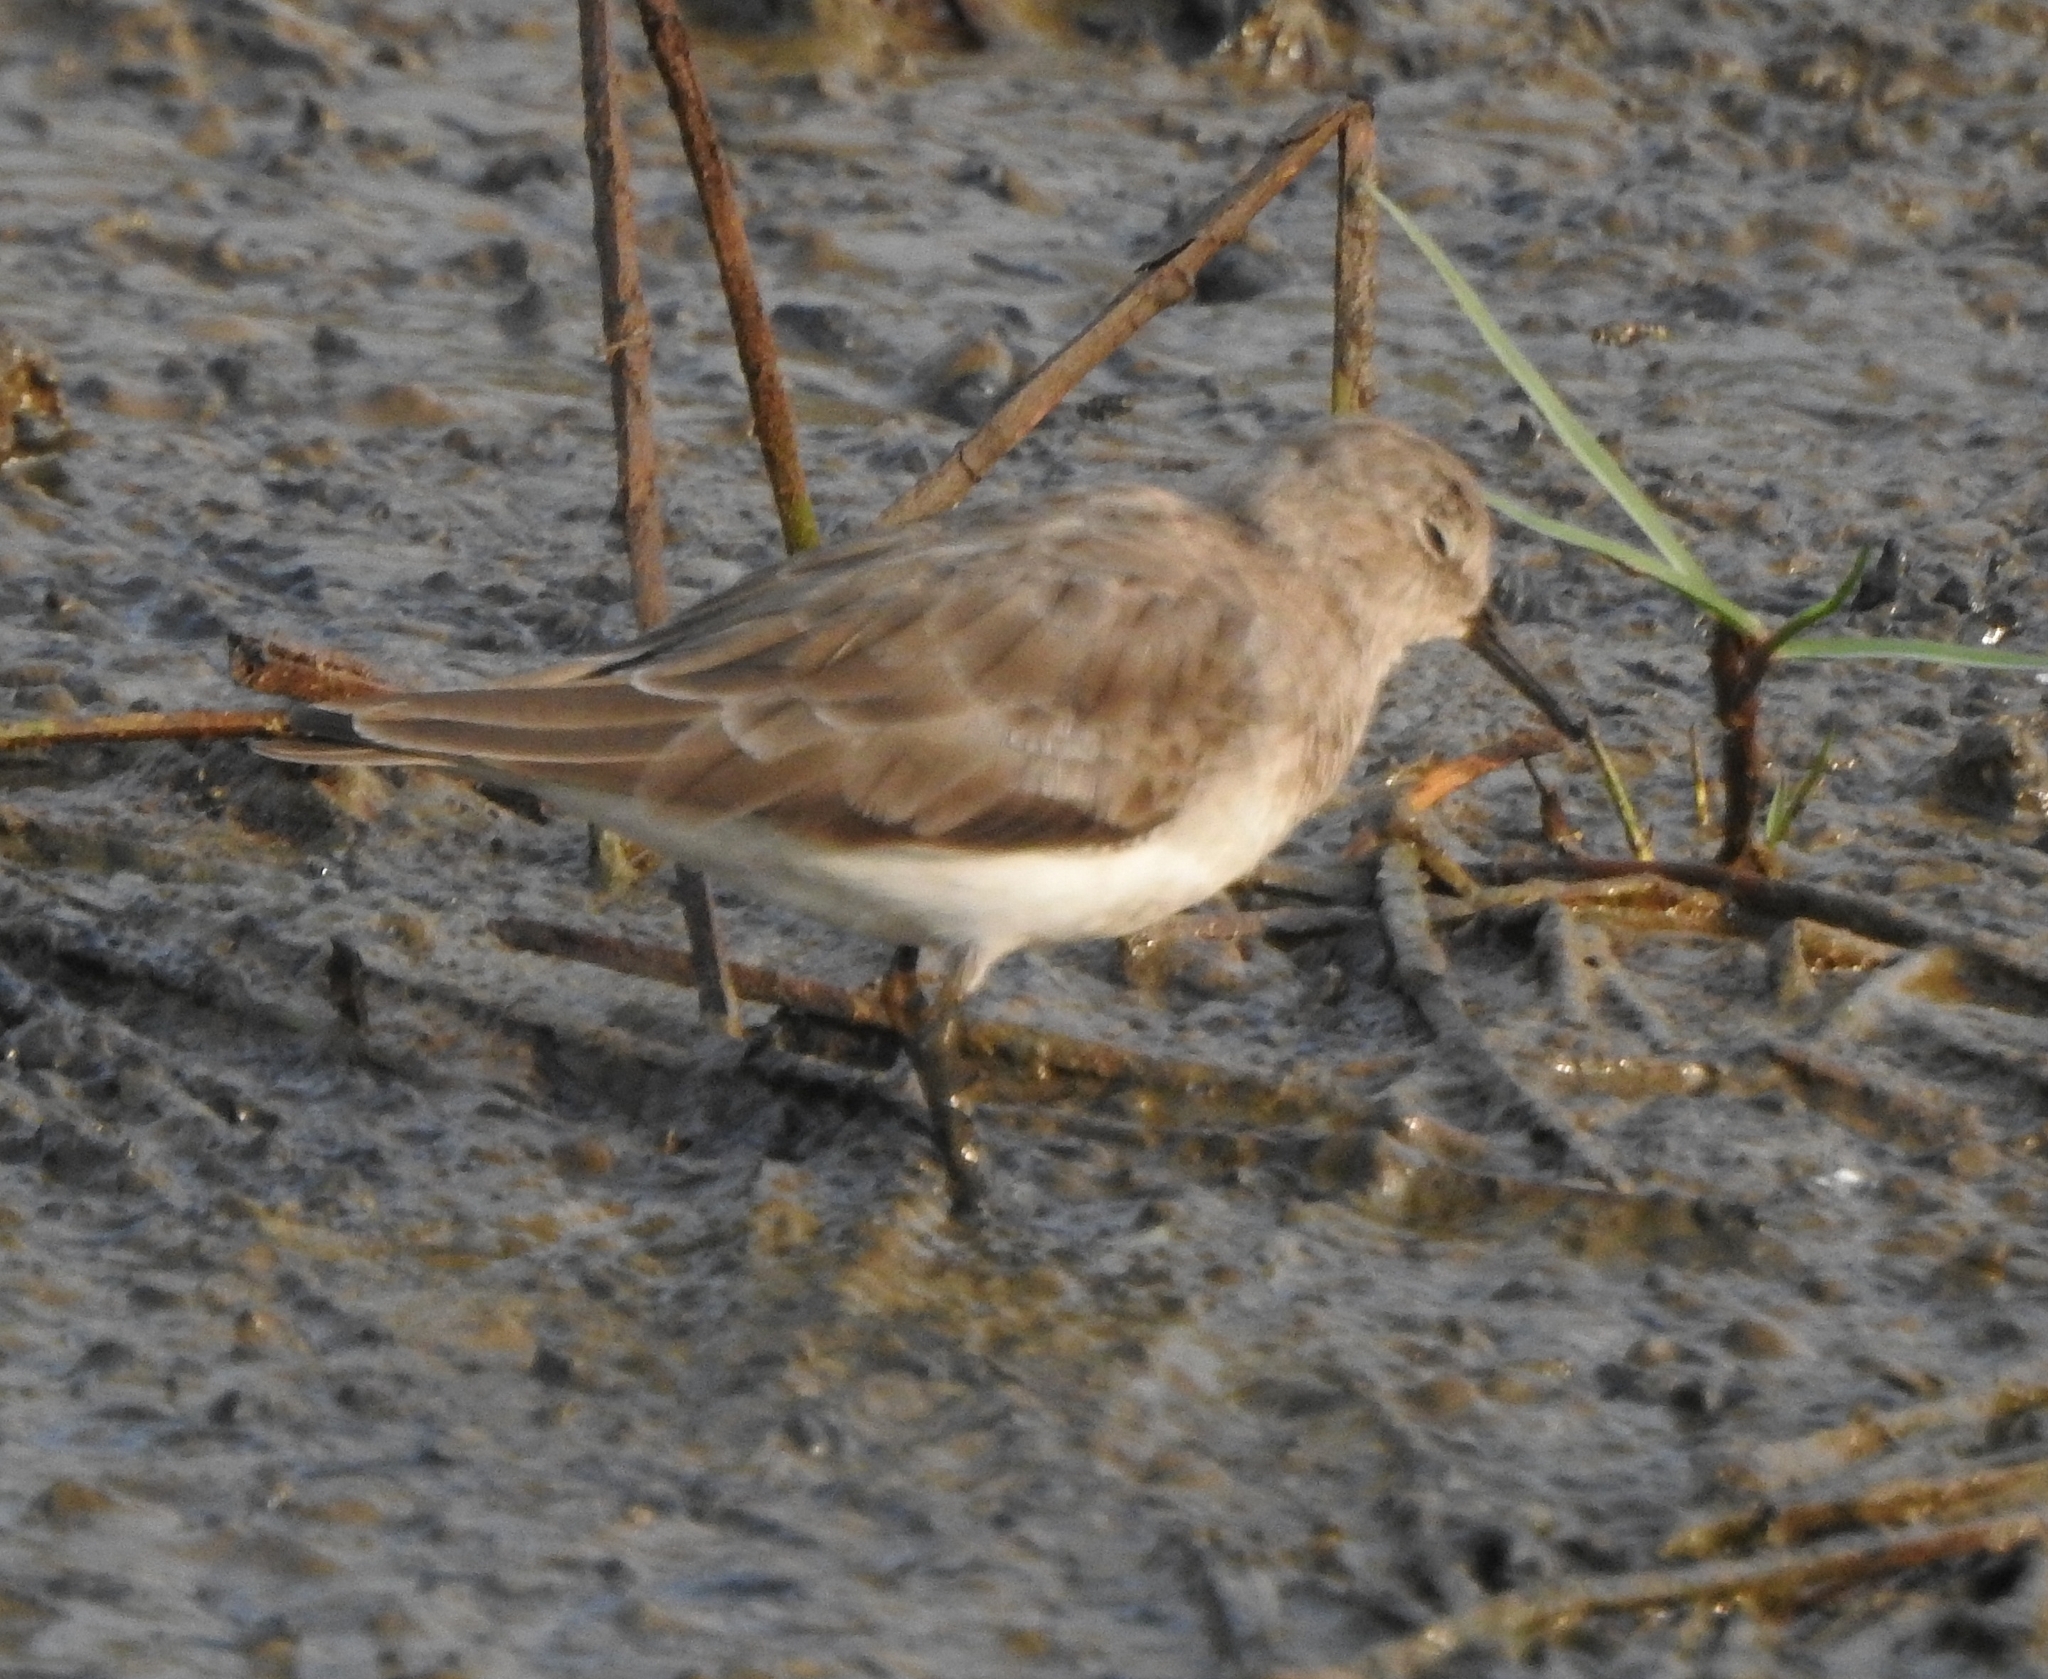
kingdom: Animalia
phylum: Chordata
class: Aves
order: Charadriiformes
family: Scolopacidae
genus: Calidris
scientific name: Calidris temminckii
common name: Temminck's stint
